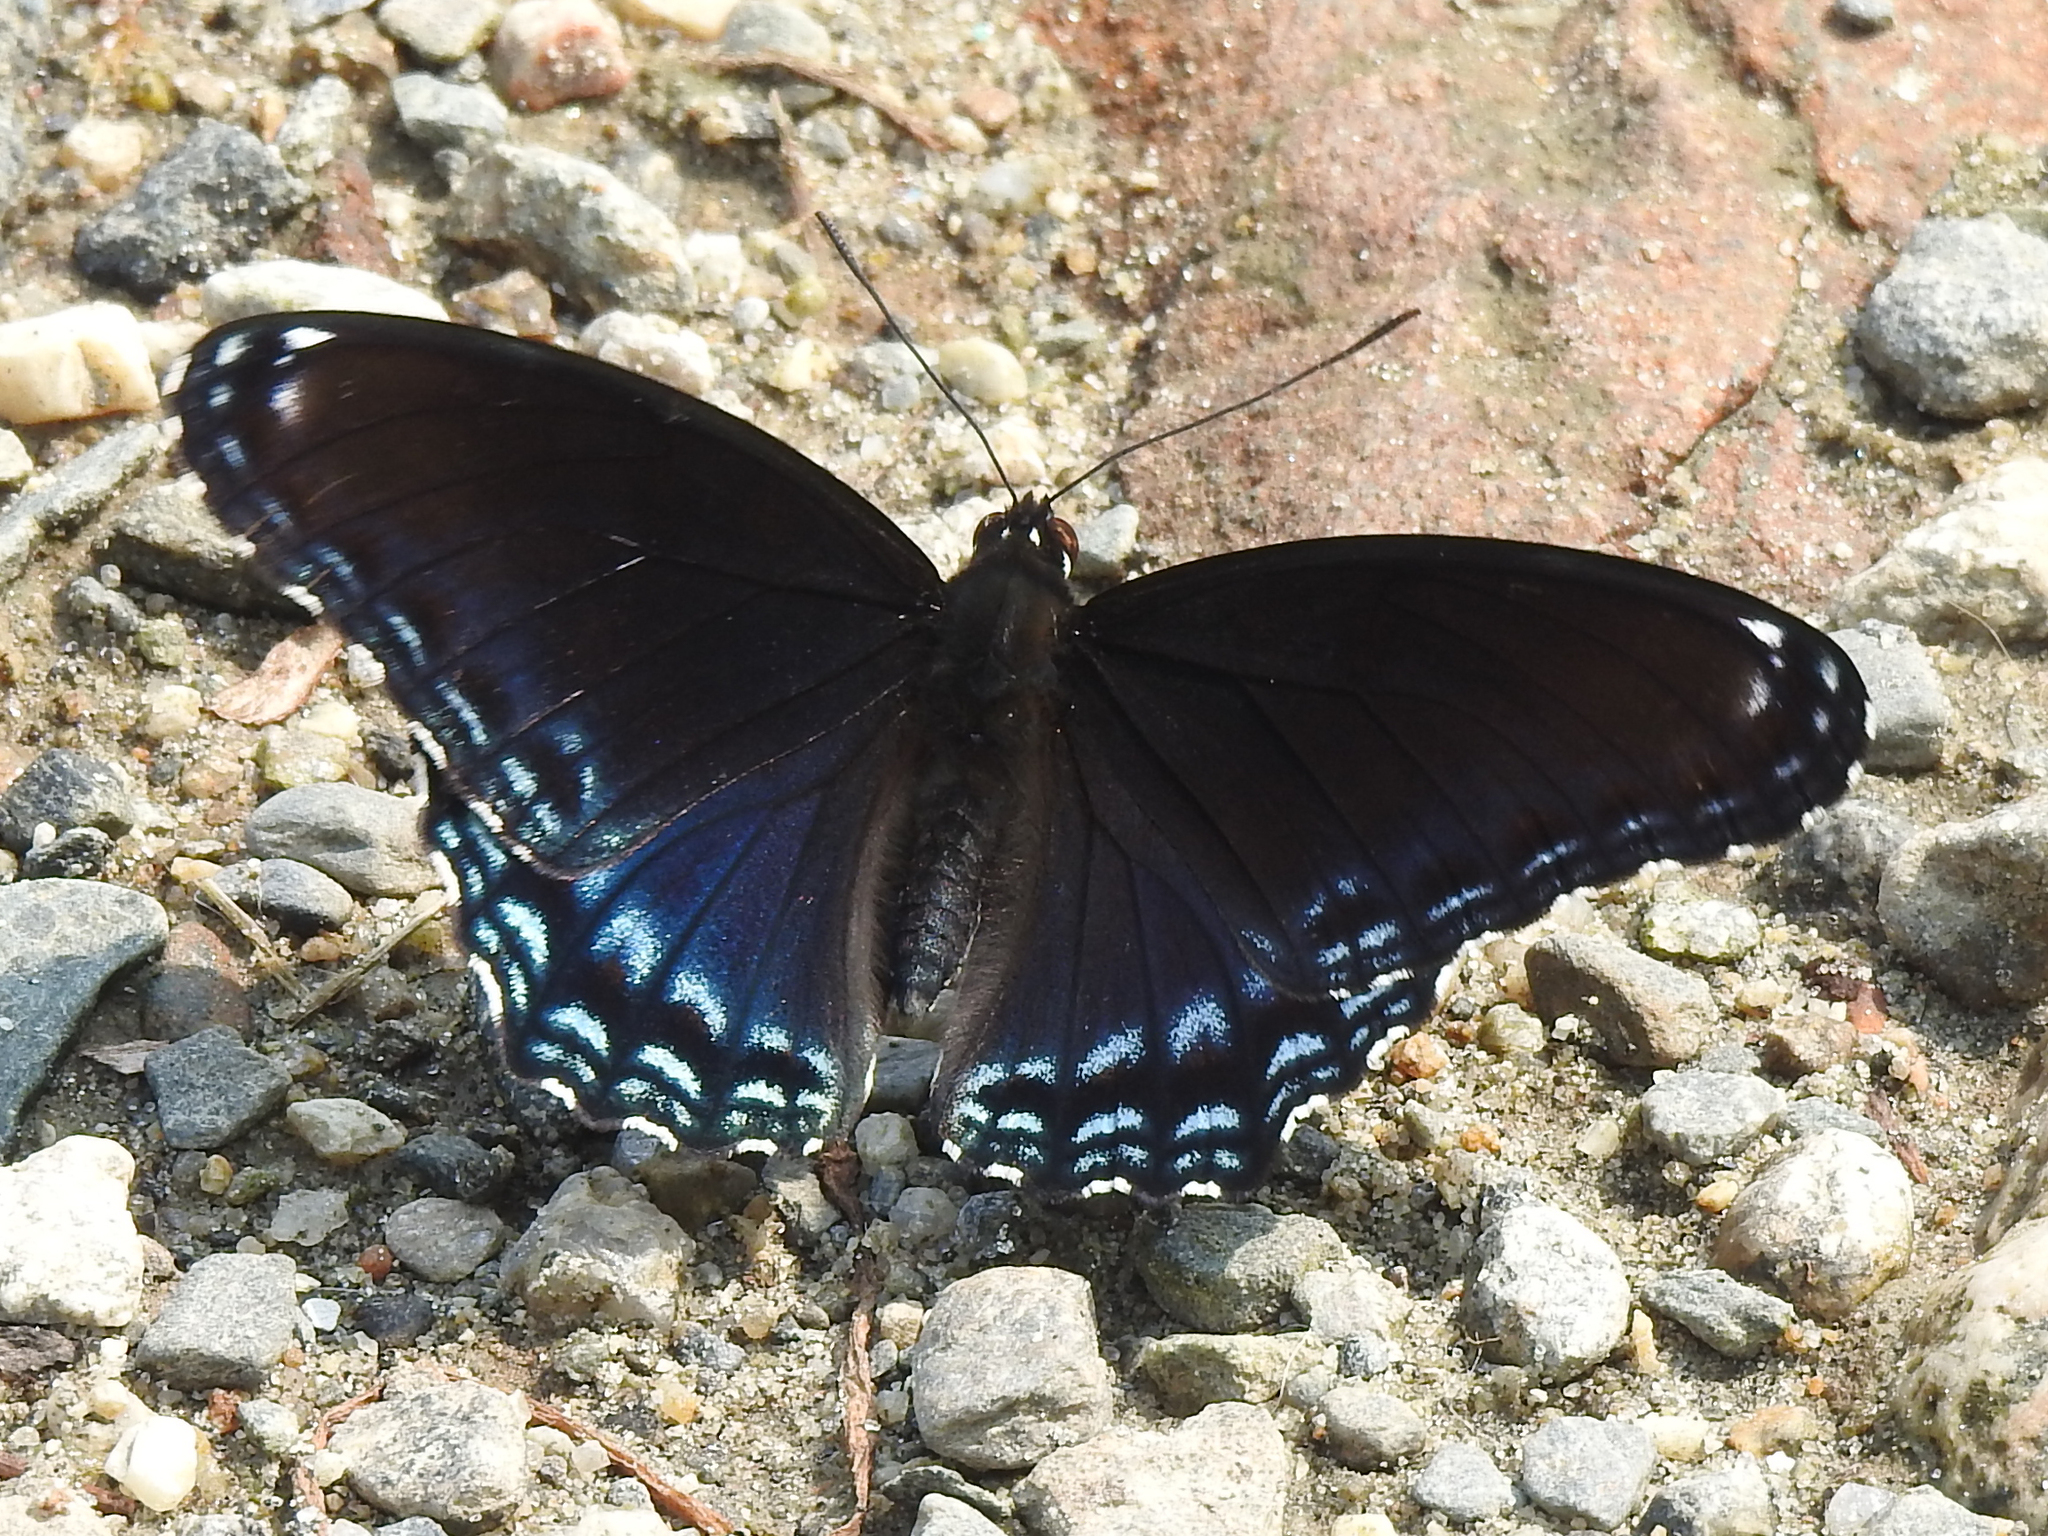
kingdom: Animalia
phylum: Arthropoda
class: Insecta
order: Lepidoptera
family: Nymphalidae
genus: Limenitis
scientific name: Limenitis arthemis
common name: Red-spotted admiral
